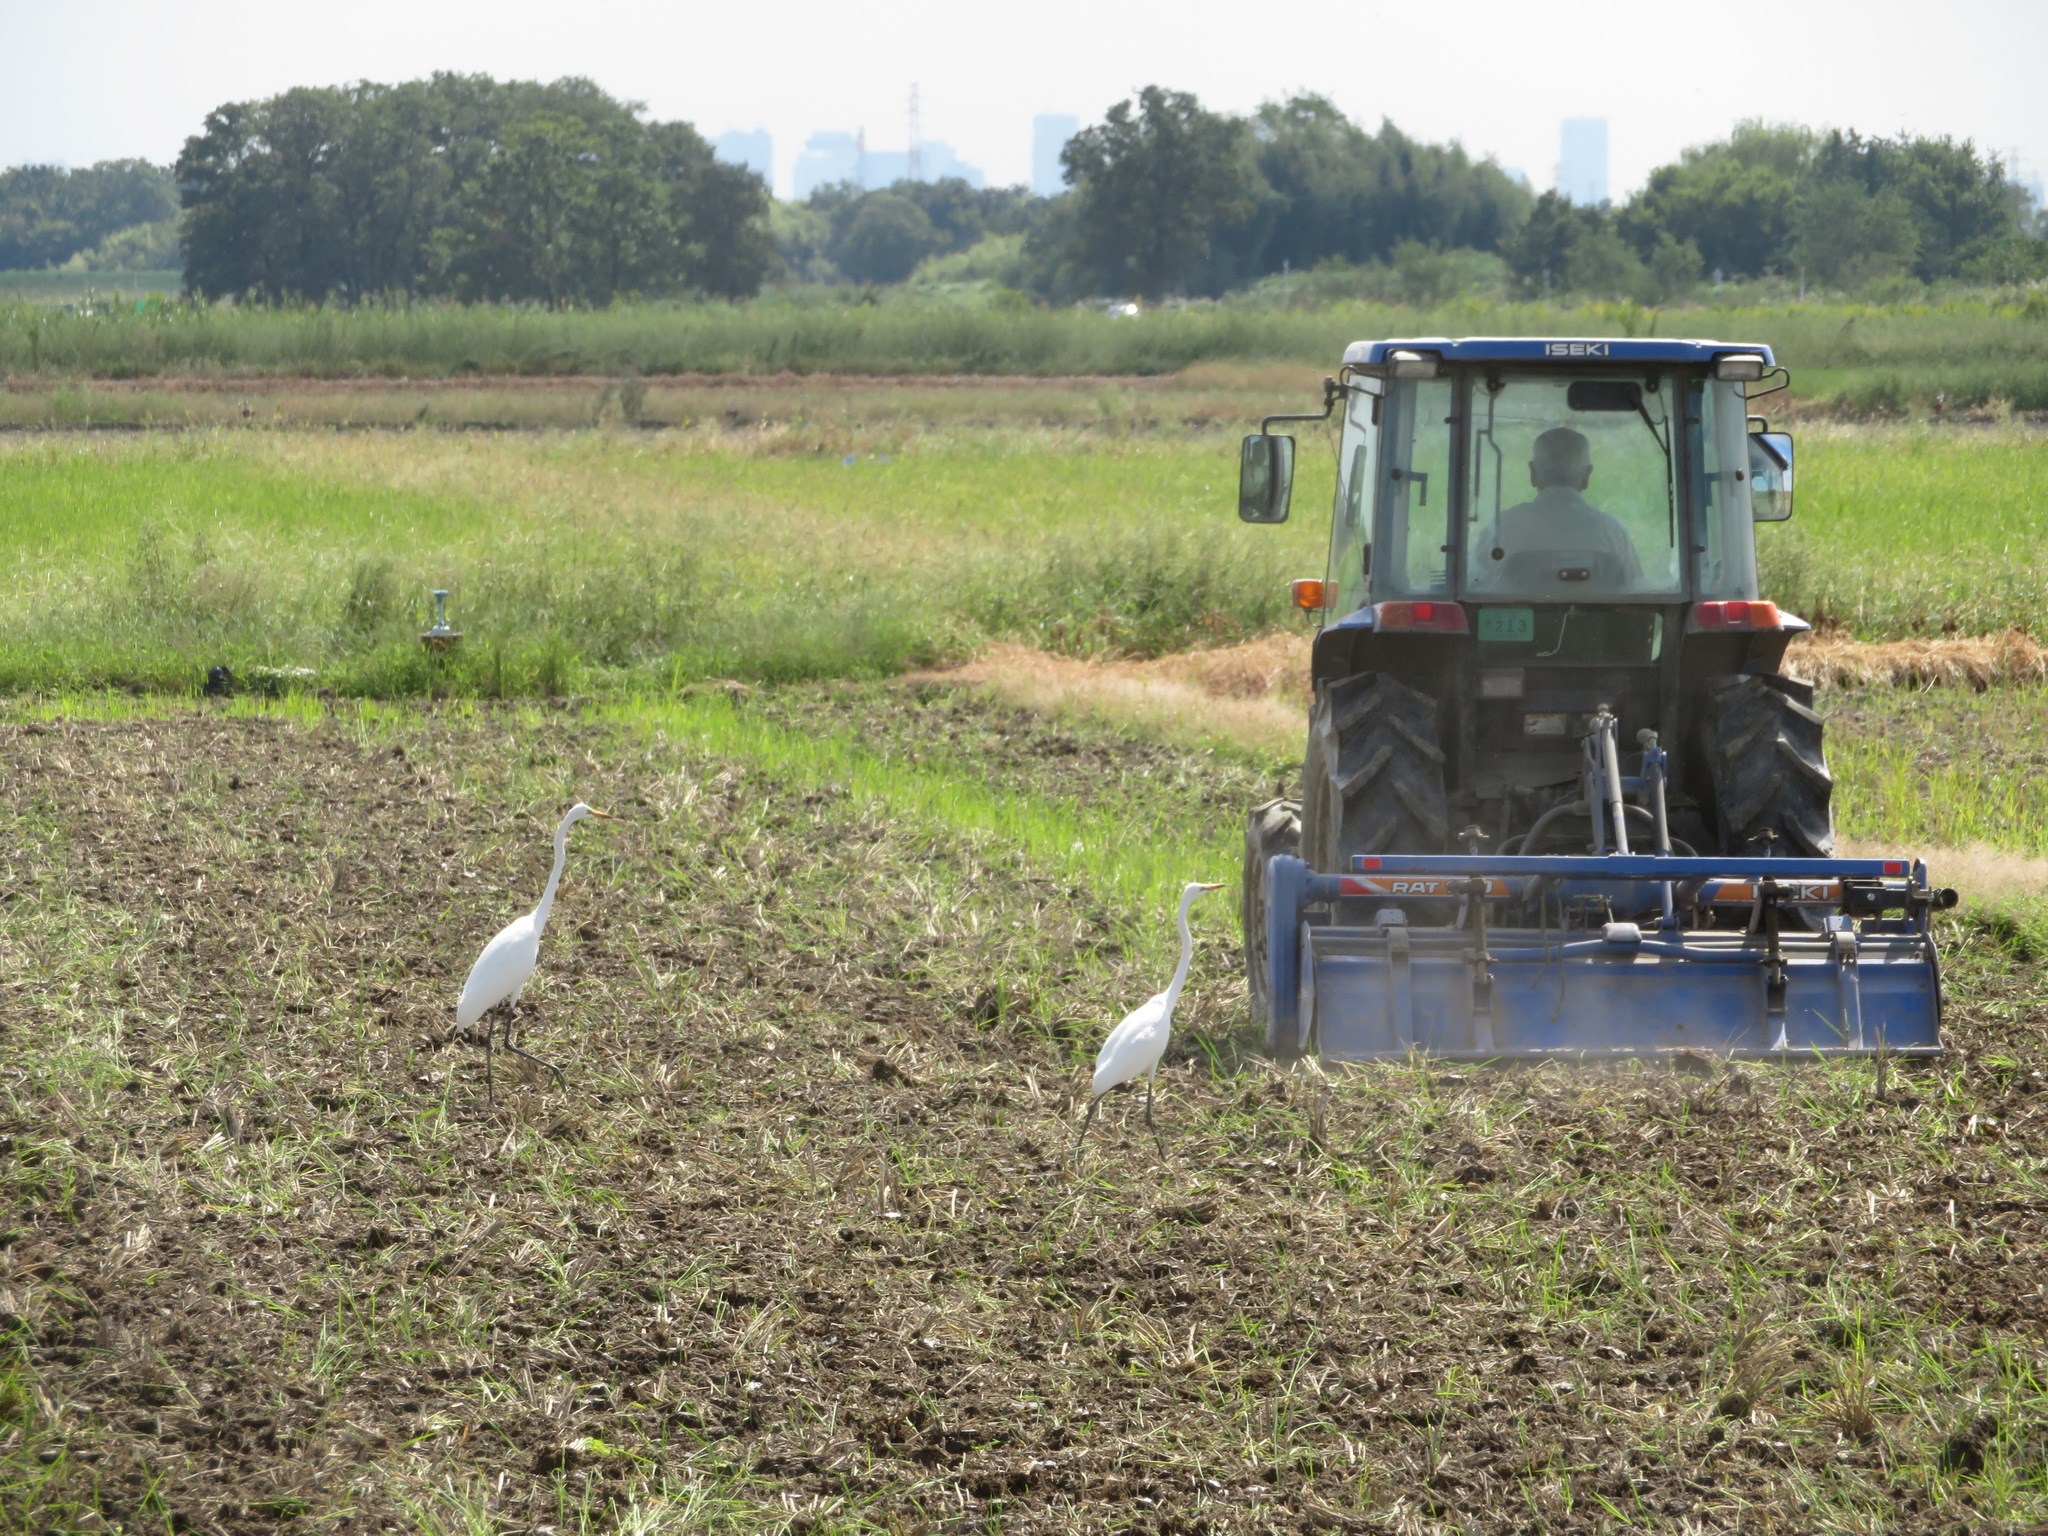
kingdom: Animalia
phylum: Chordata
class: Aves
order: Pelecaniformes
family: Ardeidae
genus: Ardea
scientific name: Ardea modesta
